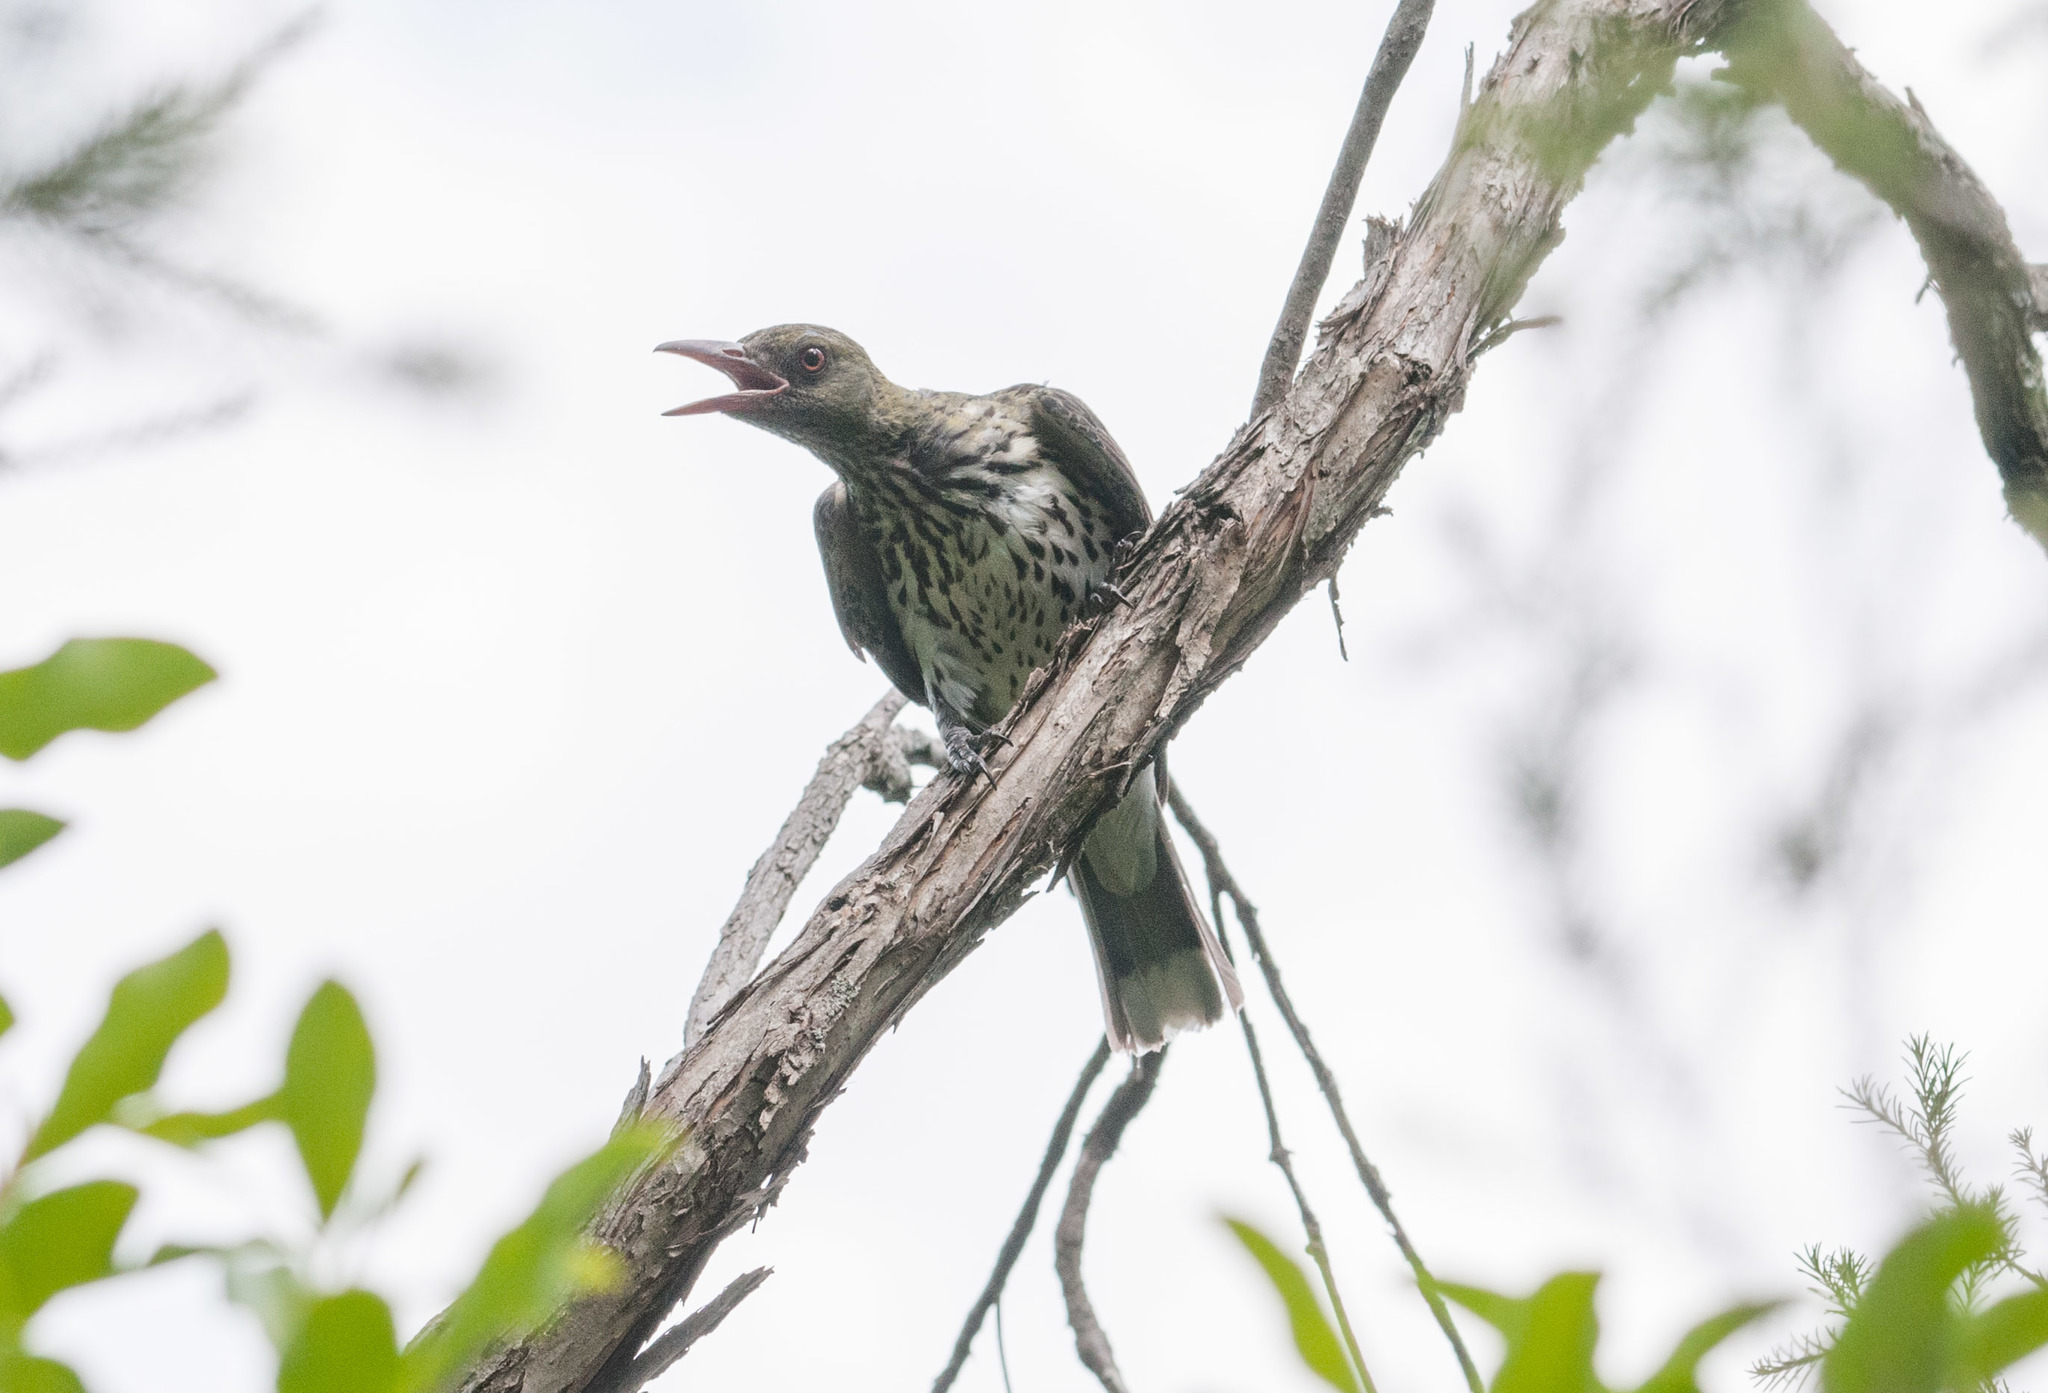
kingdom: Animalia
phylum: Chordata
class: Aves
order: Passeriformes
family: Oriolidae
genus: Oriolus
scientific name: Oriolus sagittatus
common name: Olive-backed oriole
